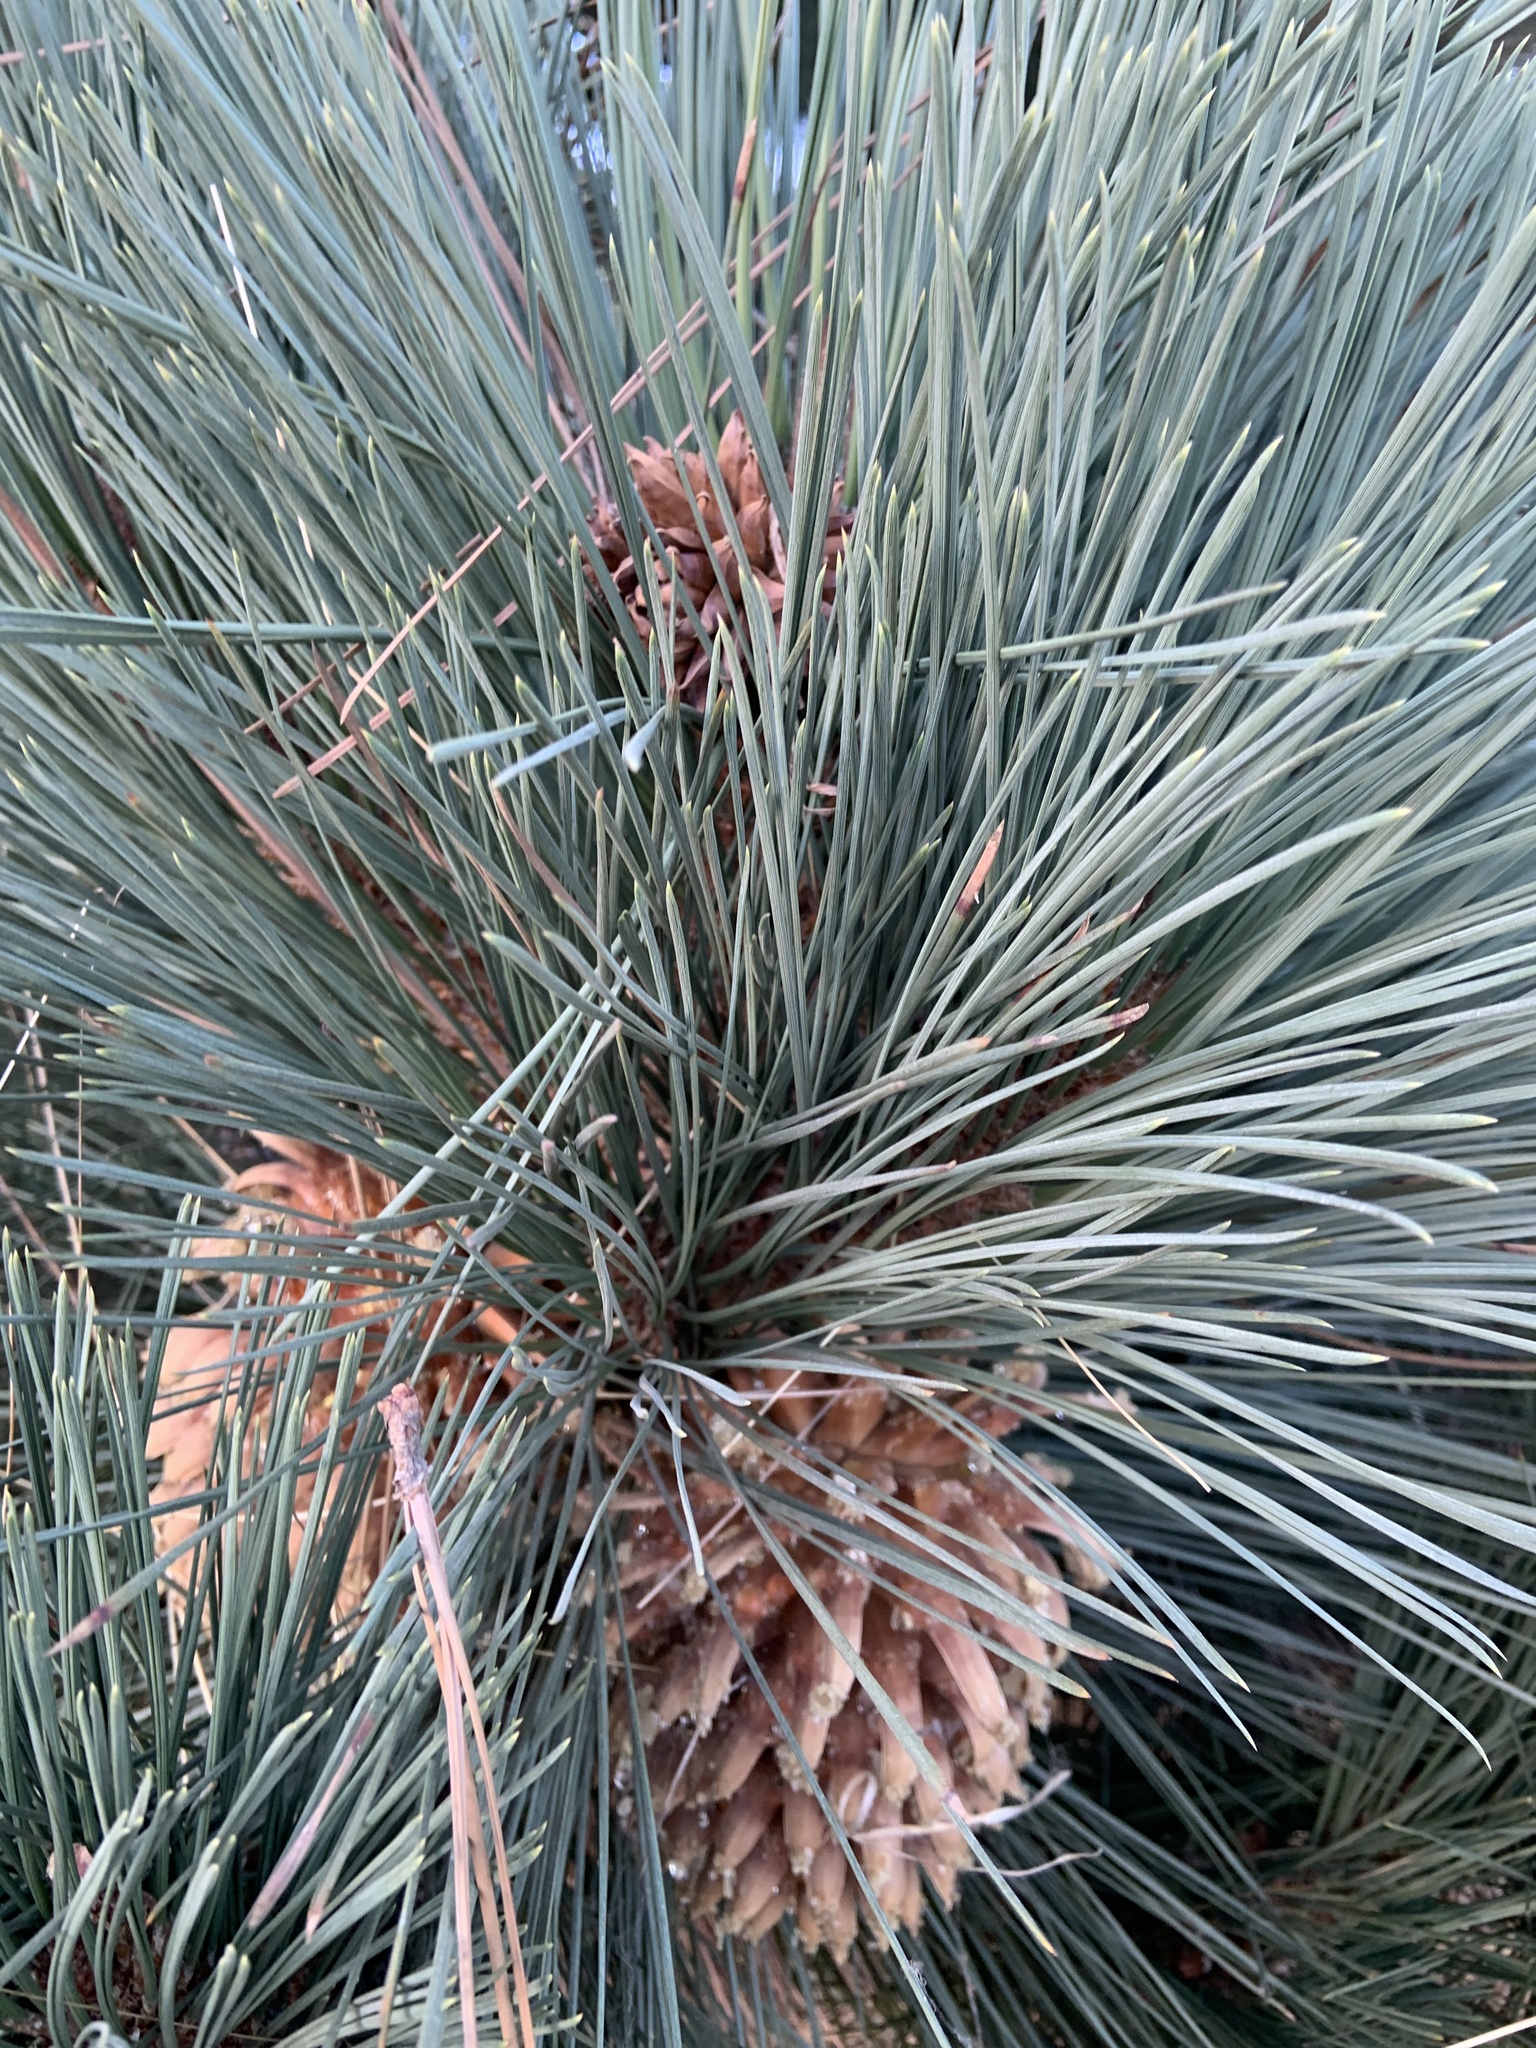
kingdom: Plantae
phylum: Tracheophyta
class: Pinopsida
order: Pinales
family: Pinaceae
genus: Pinus
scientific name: Pinus coulteri
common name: Coulter pine
